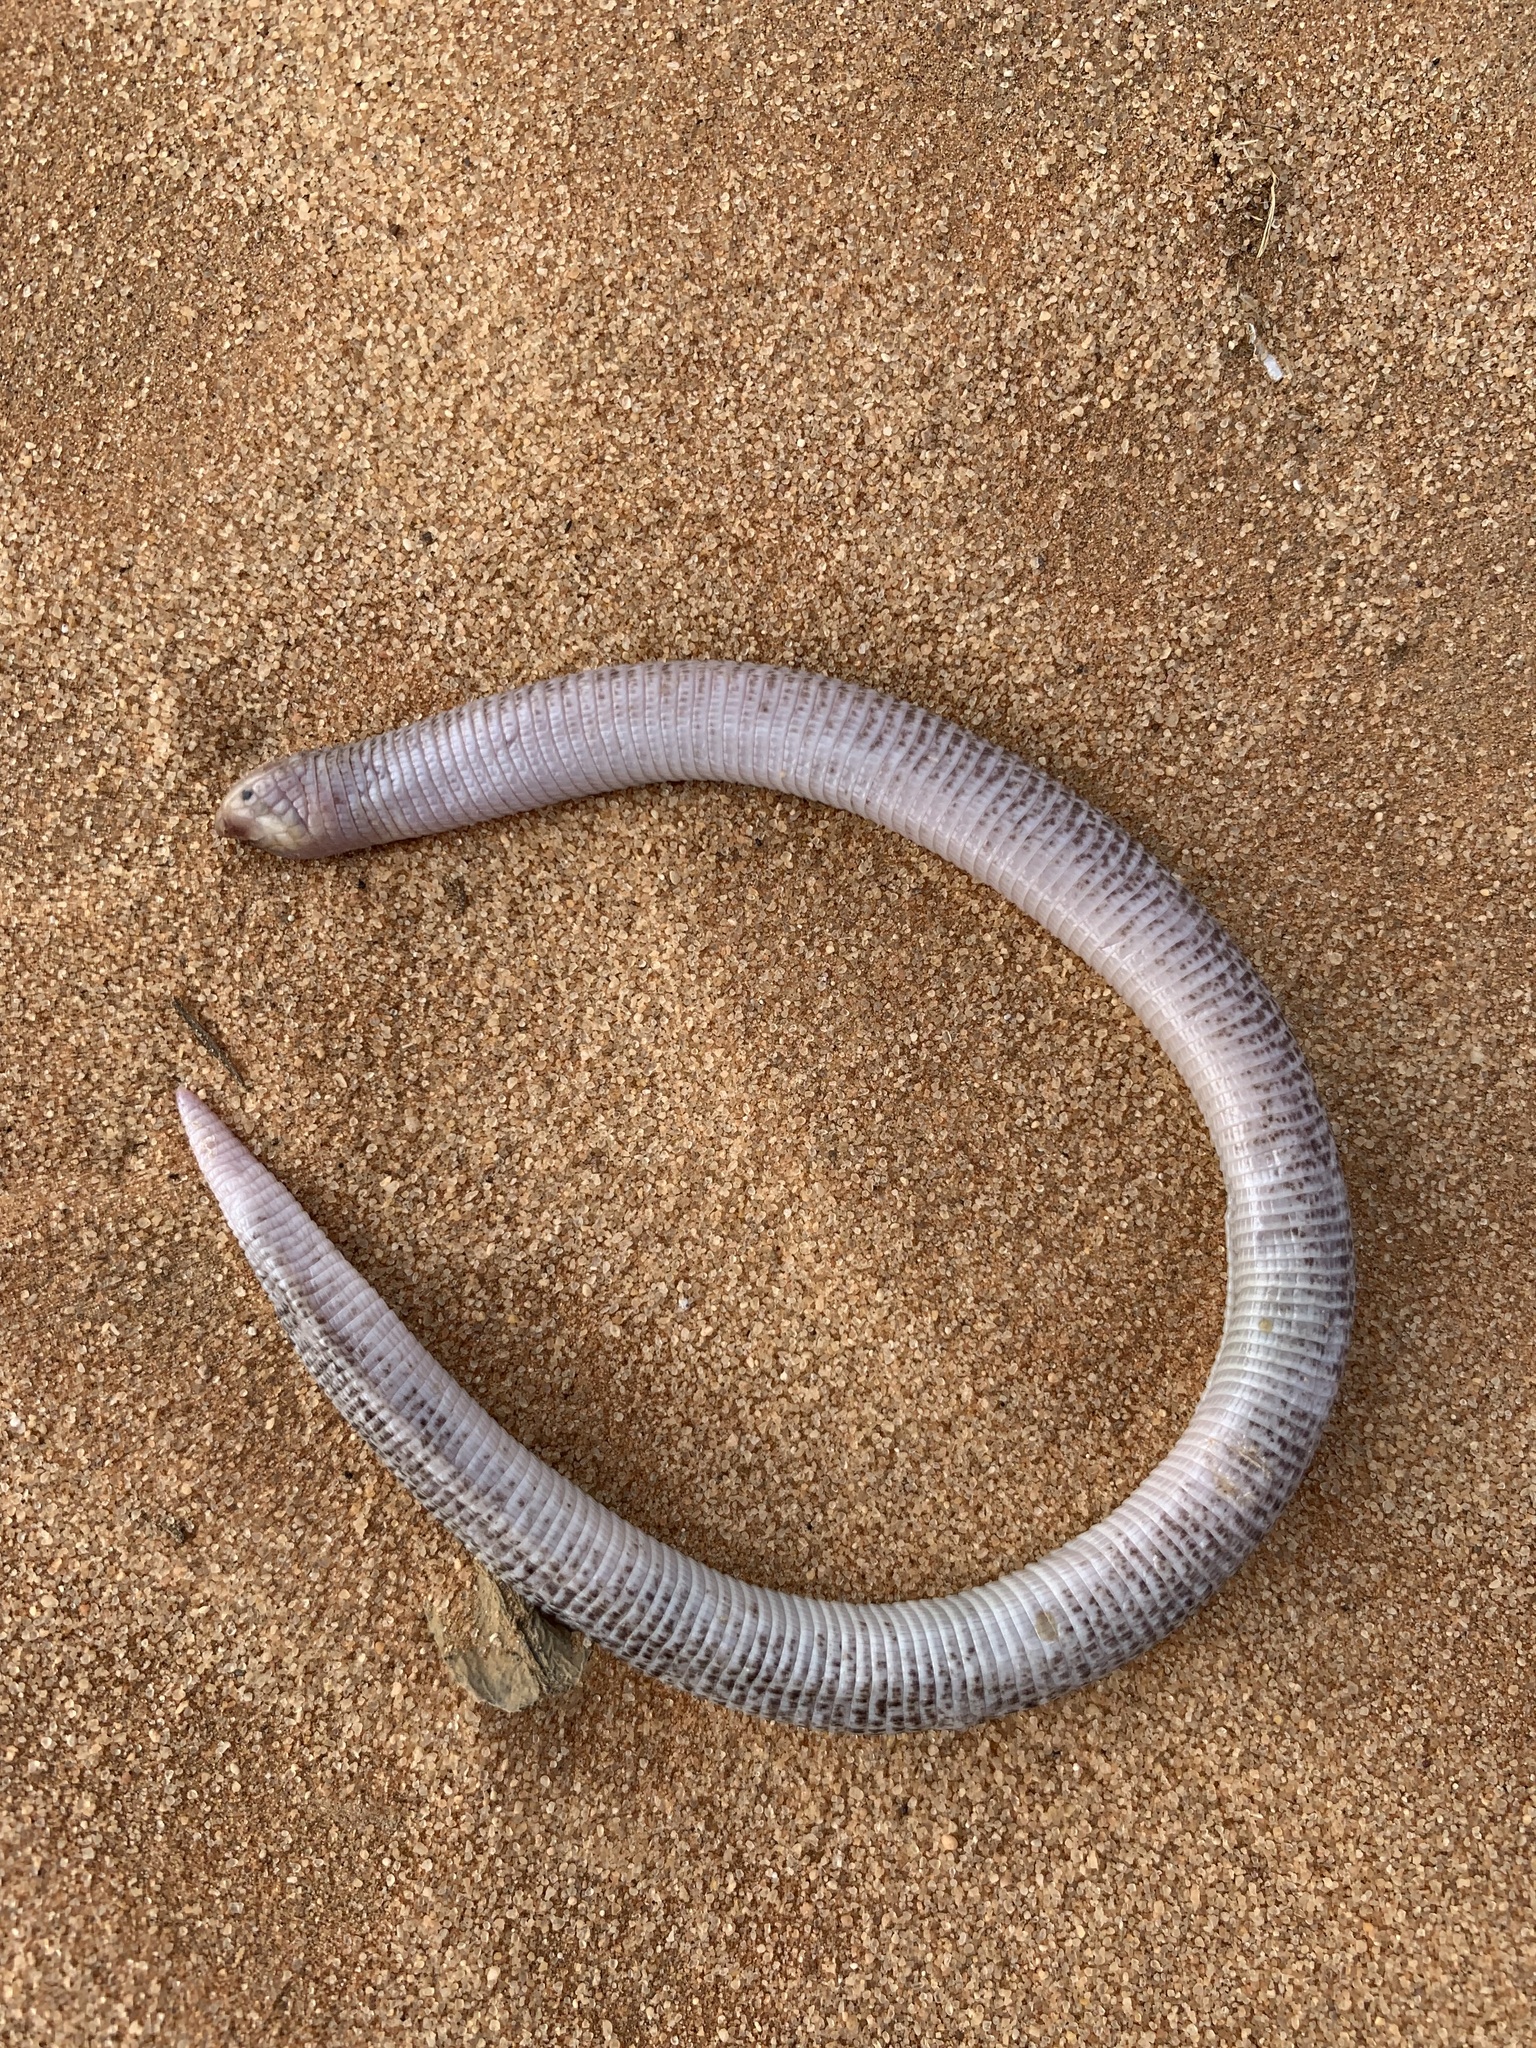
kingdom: Animalia
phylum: Chordata
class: Squamata
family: Trogonophidae
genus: Diplometopon
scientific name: Diplometopon zarudnyi
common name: Zarudnyi's worm lizard
